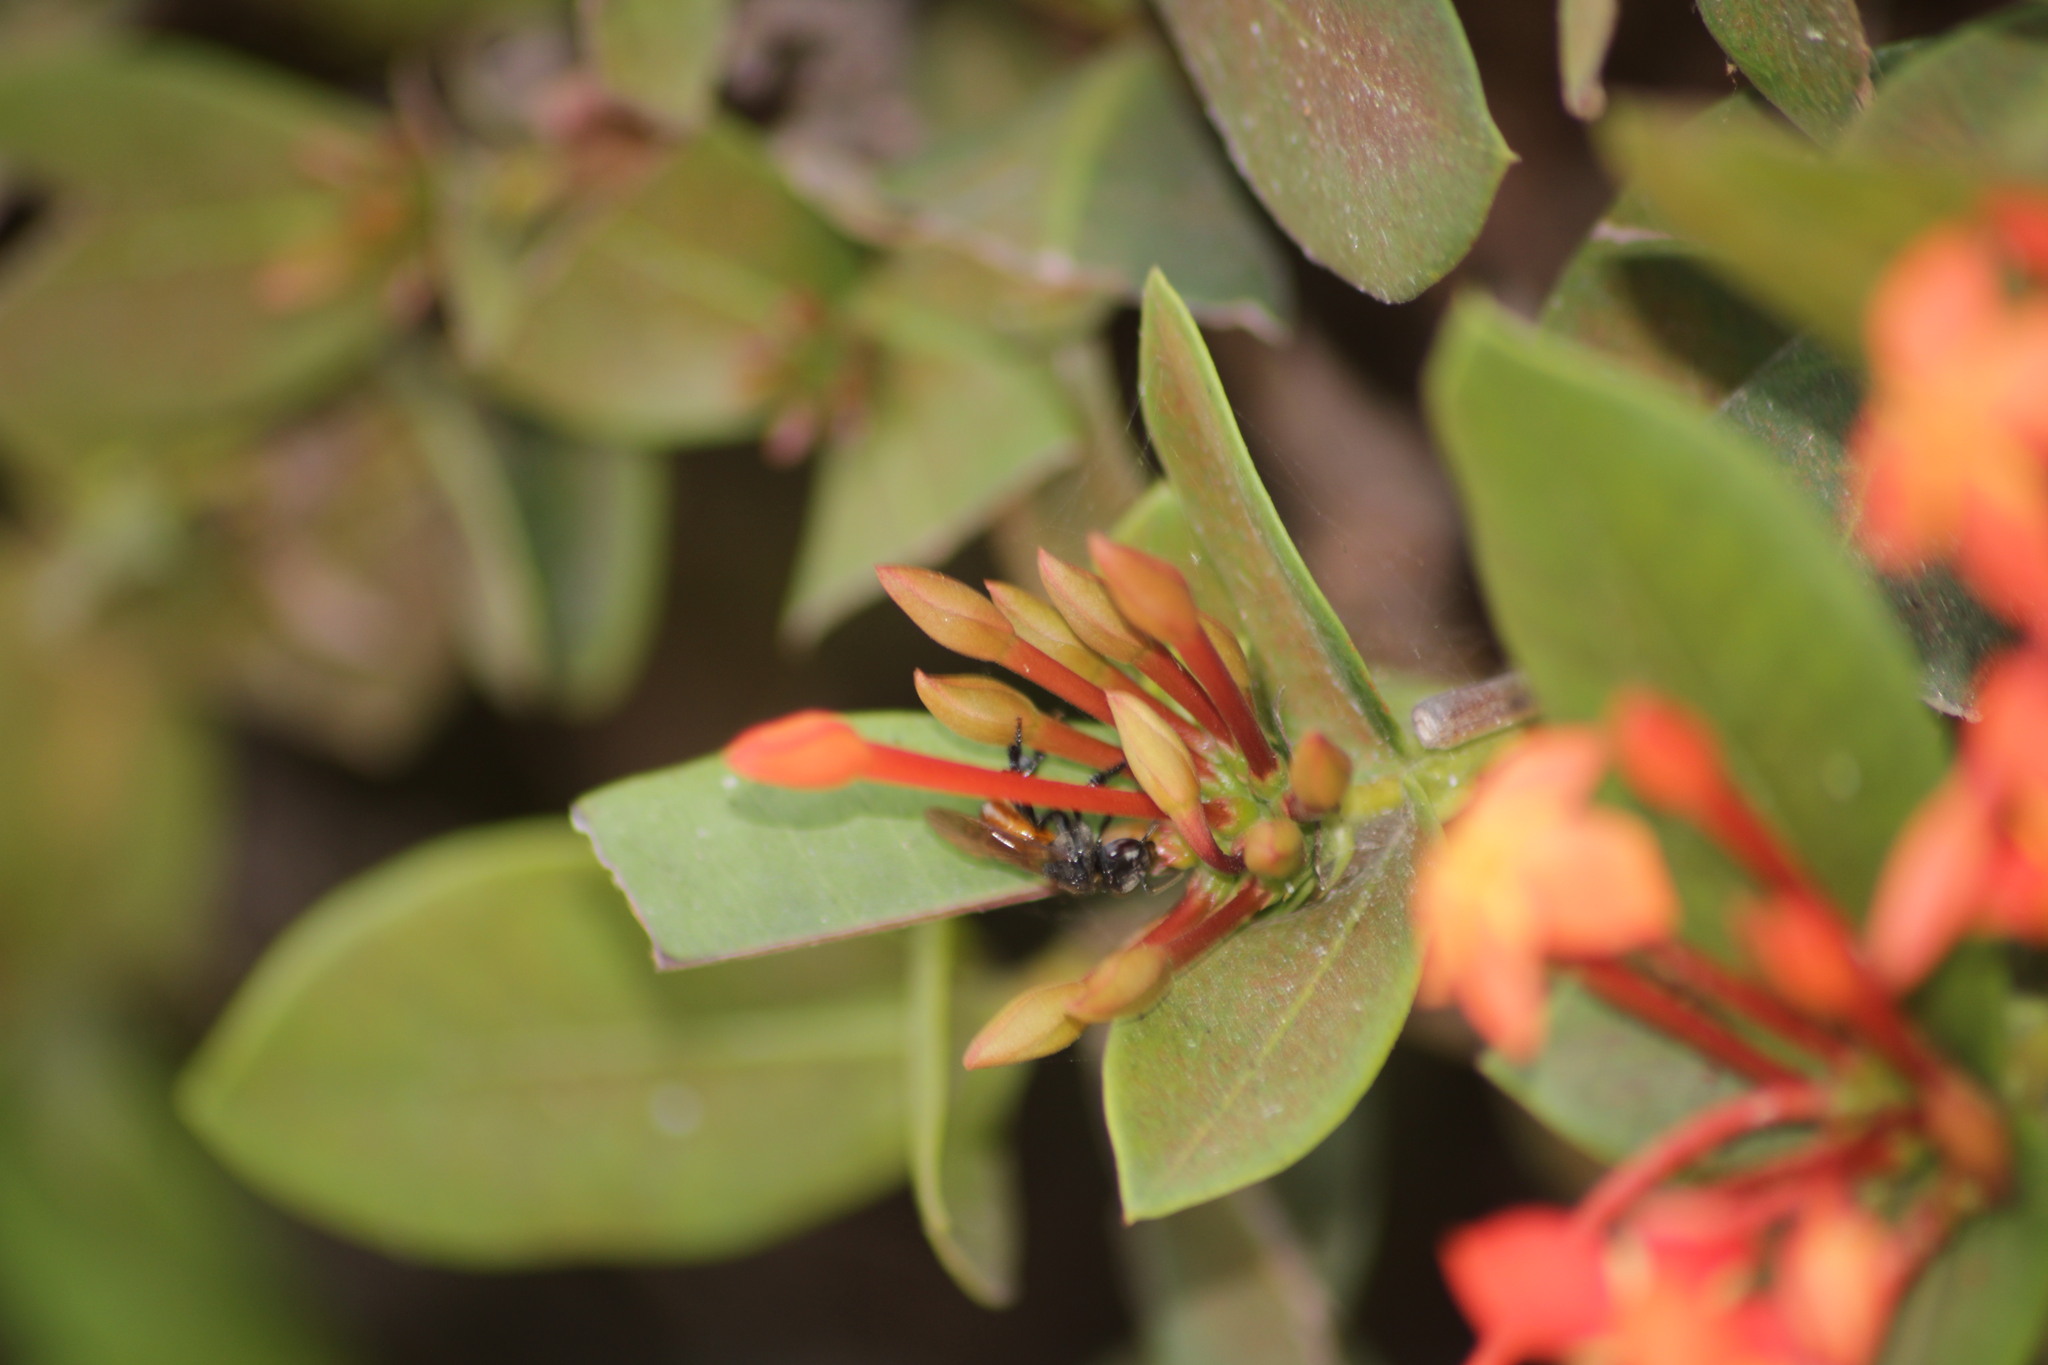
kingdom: Animalia
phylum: Arthropoda
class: Insecta
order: Hymenoptera
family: Apidae
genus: Trigona
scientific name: Trigona fulviventris
